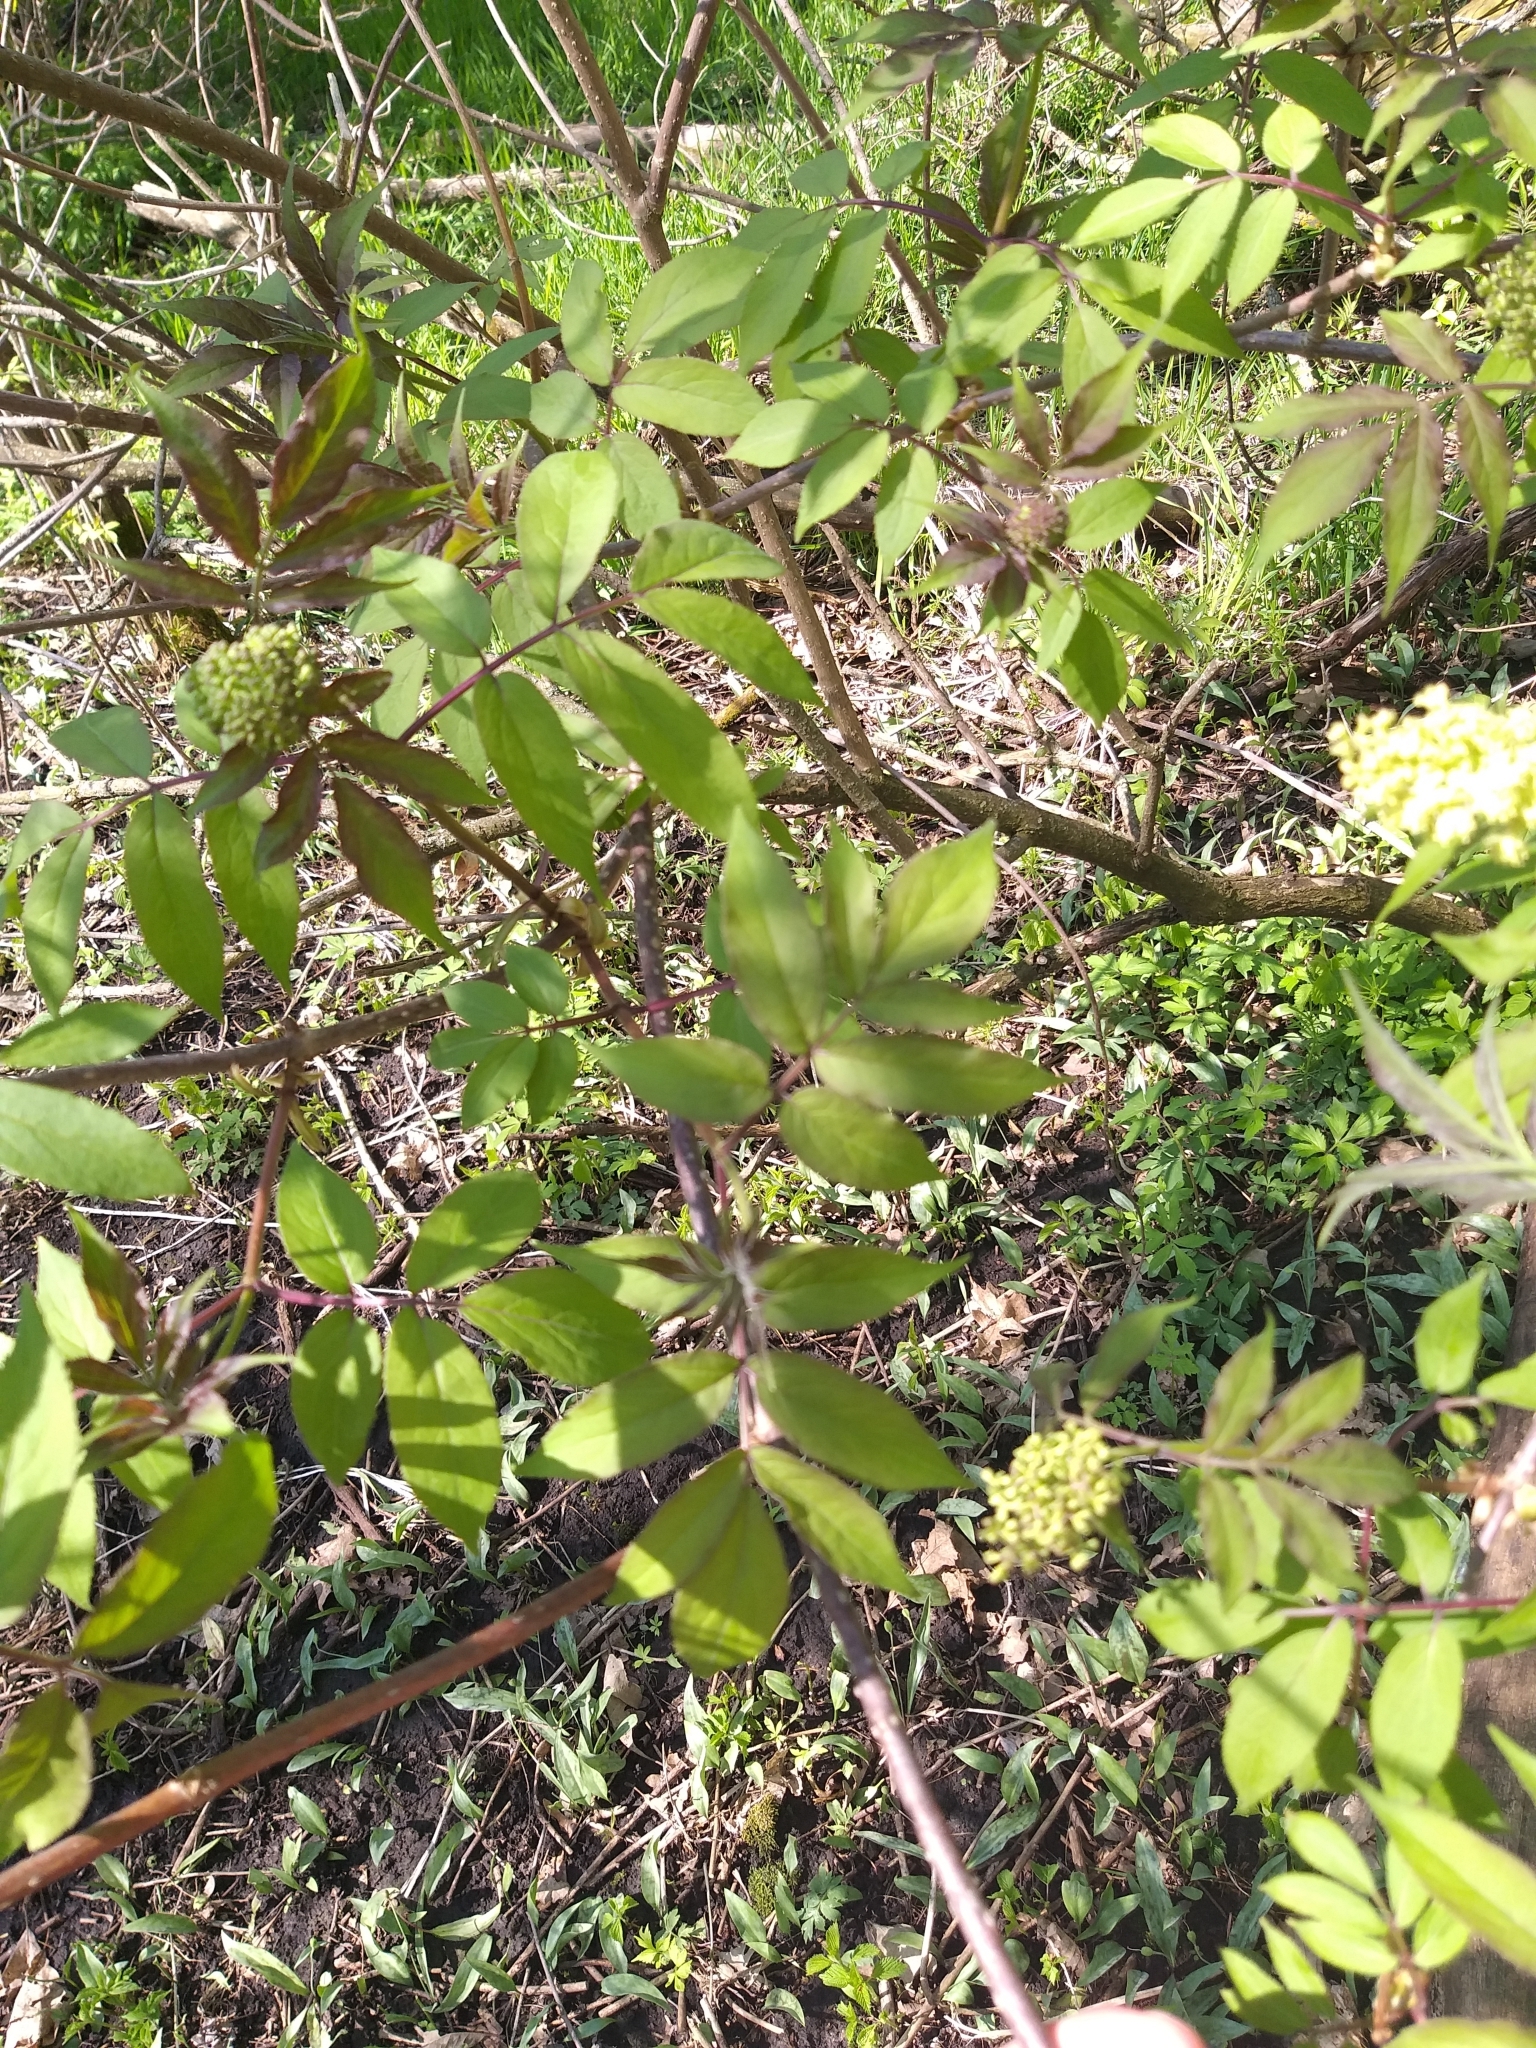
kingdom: Plantae
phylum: Tracheophyta
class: Magnoliopsida
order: Dipsacales
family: Viburnaceae
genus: Sambucus
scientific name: Sambucus racemosa
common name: Red-berried elder
